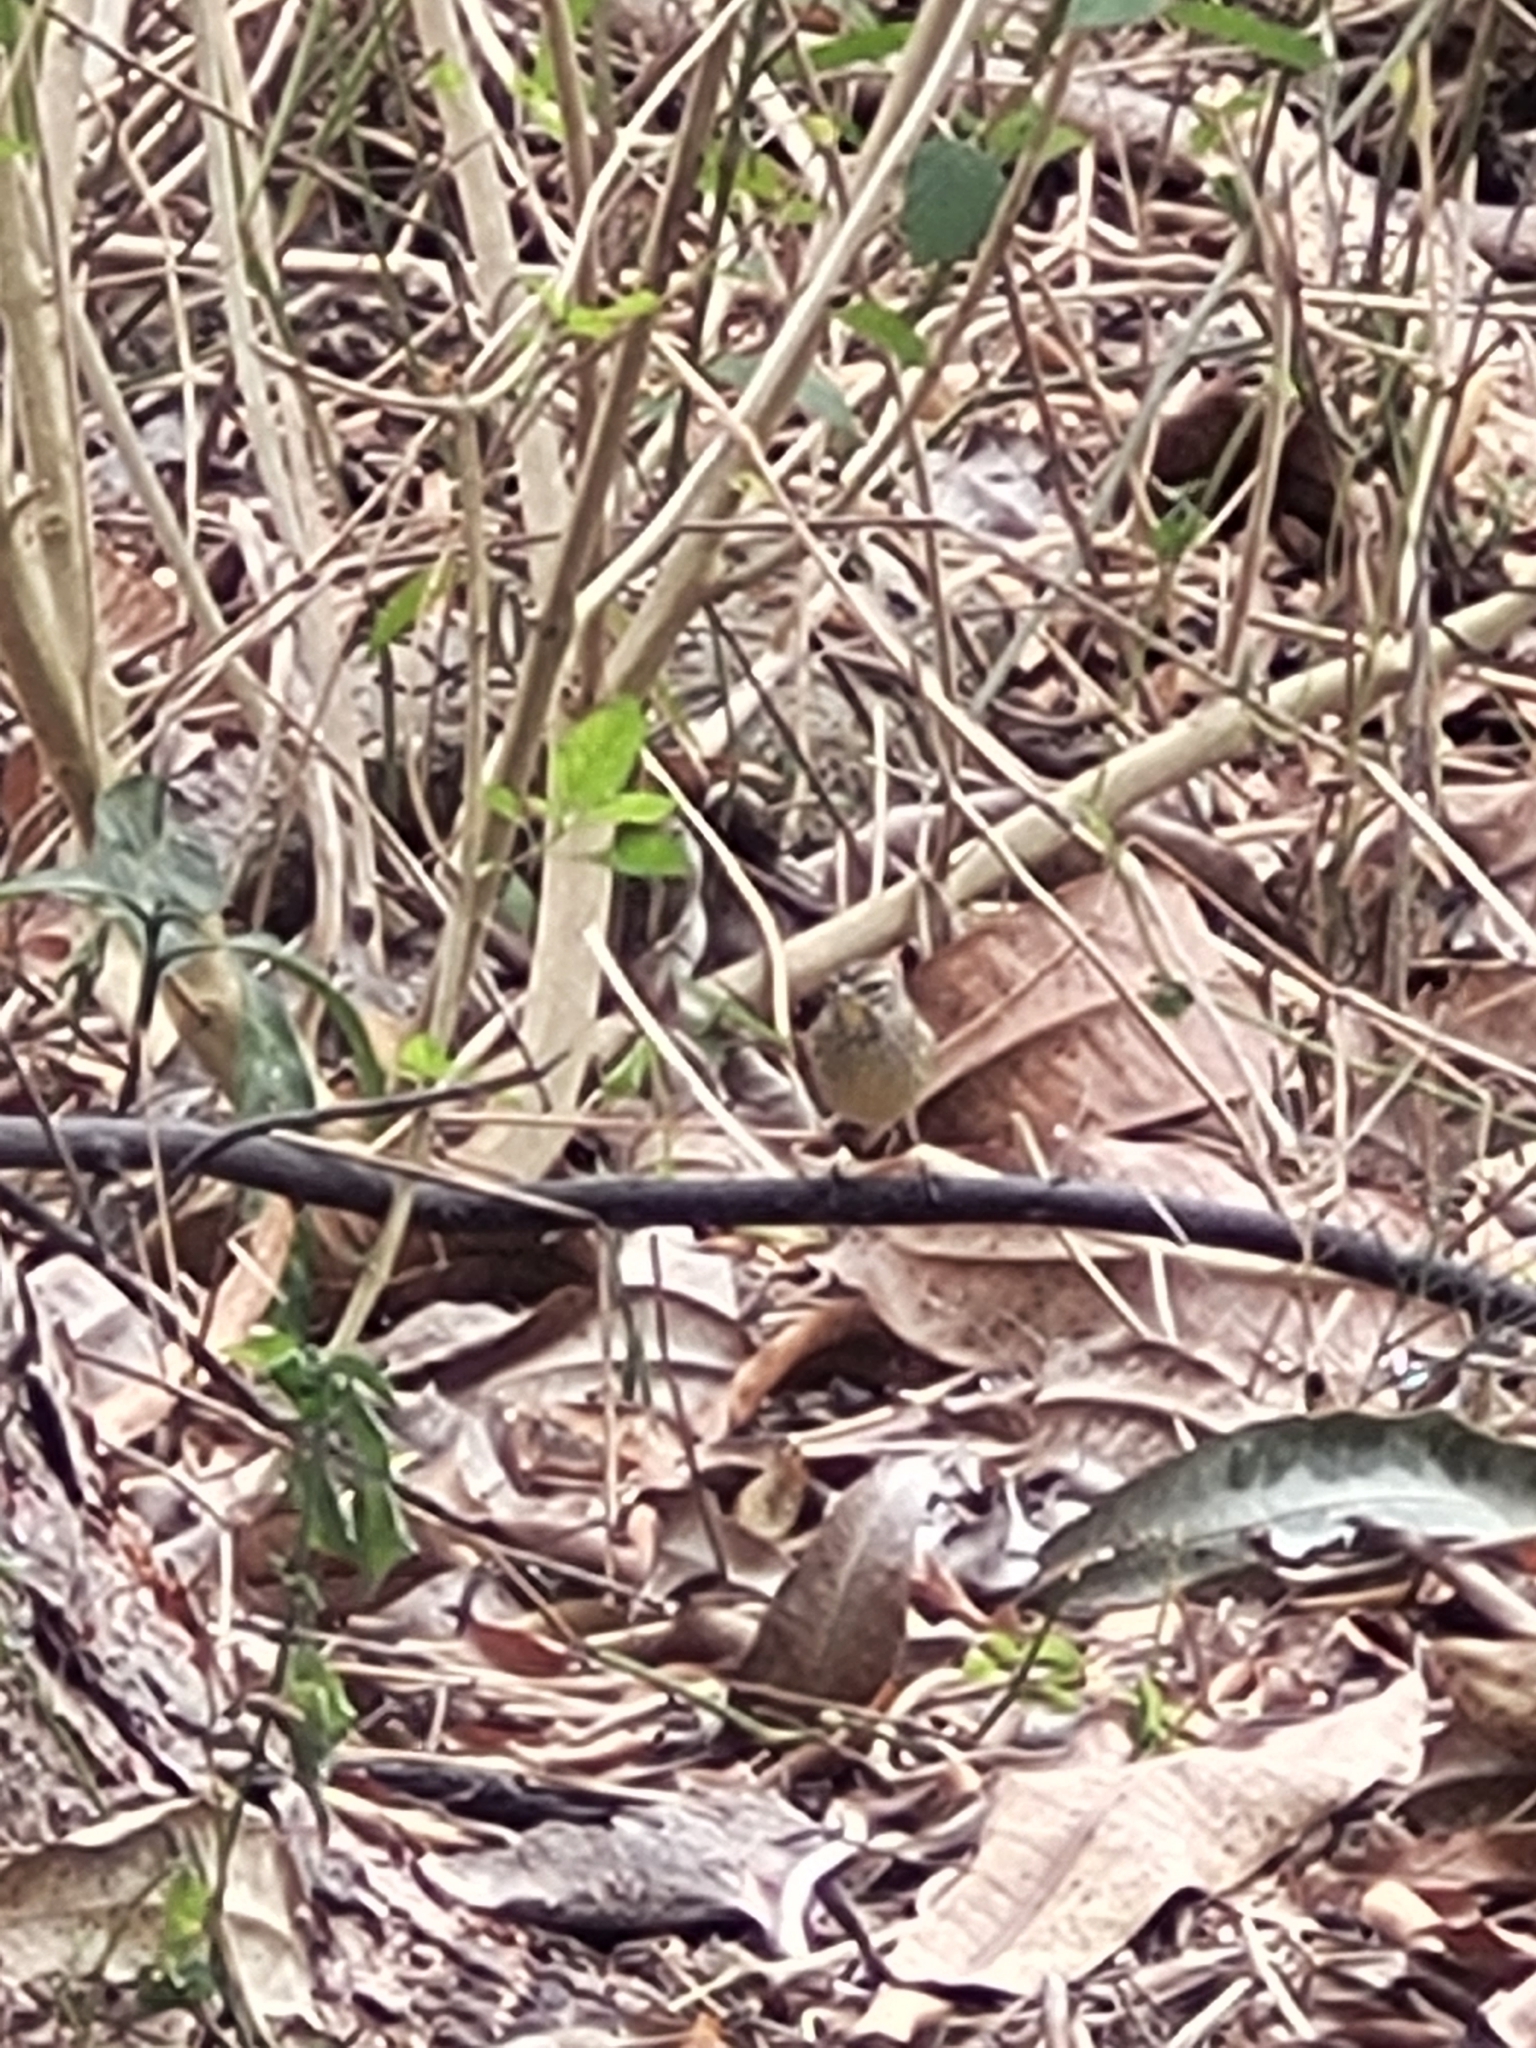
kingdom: Animalia
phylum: Chordata
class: Aves
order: Passeriformes
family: Parulidae
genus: Setophaga
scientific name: Setophaga palmarum
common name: Palm warbler
